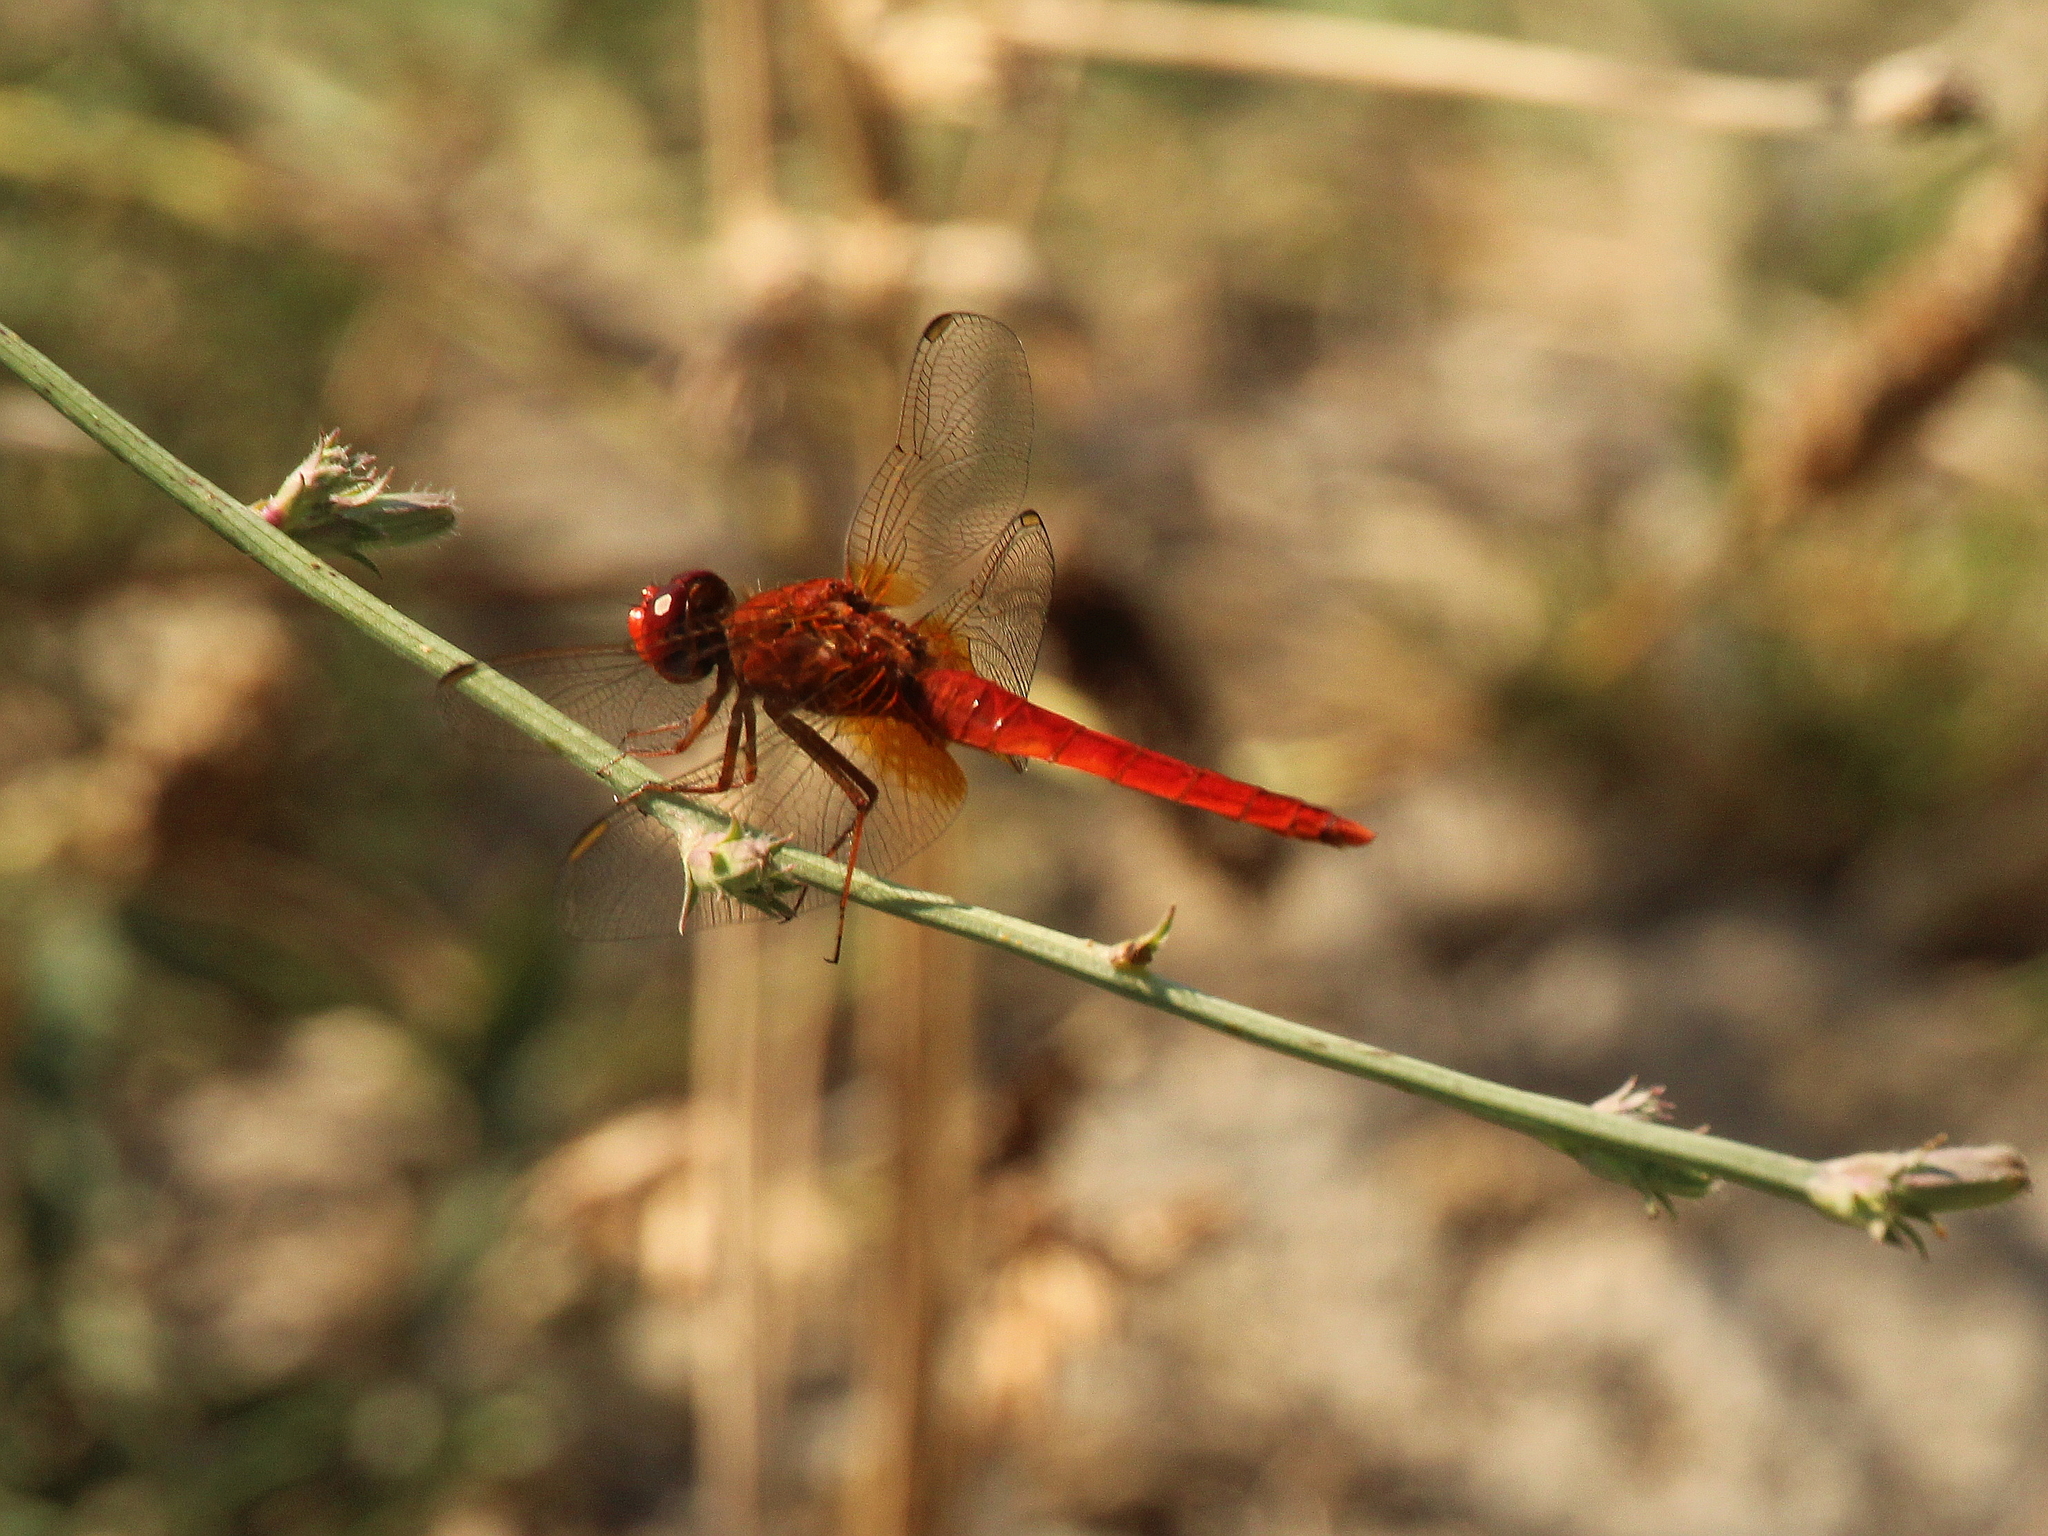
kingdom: Animalia
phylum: Arthropoda
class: Insecta
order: Odonata
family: Libellulidae
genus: Crocothemis
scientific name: Crocothemis erythraea
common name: Scarlet dragonfly
